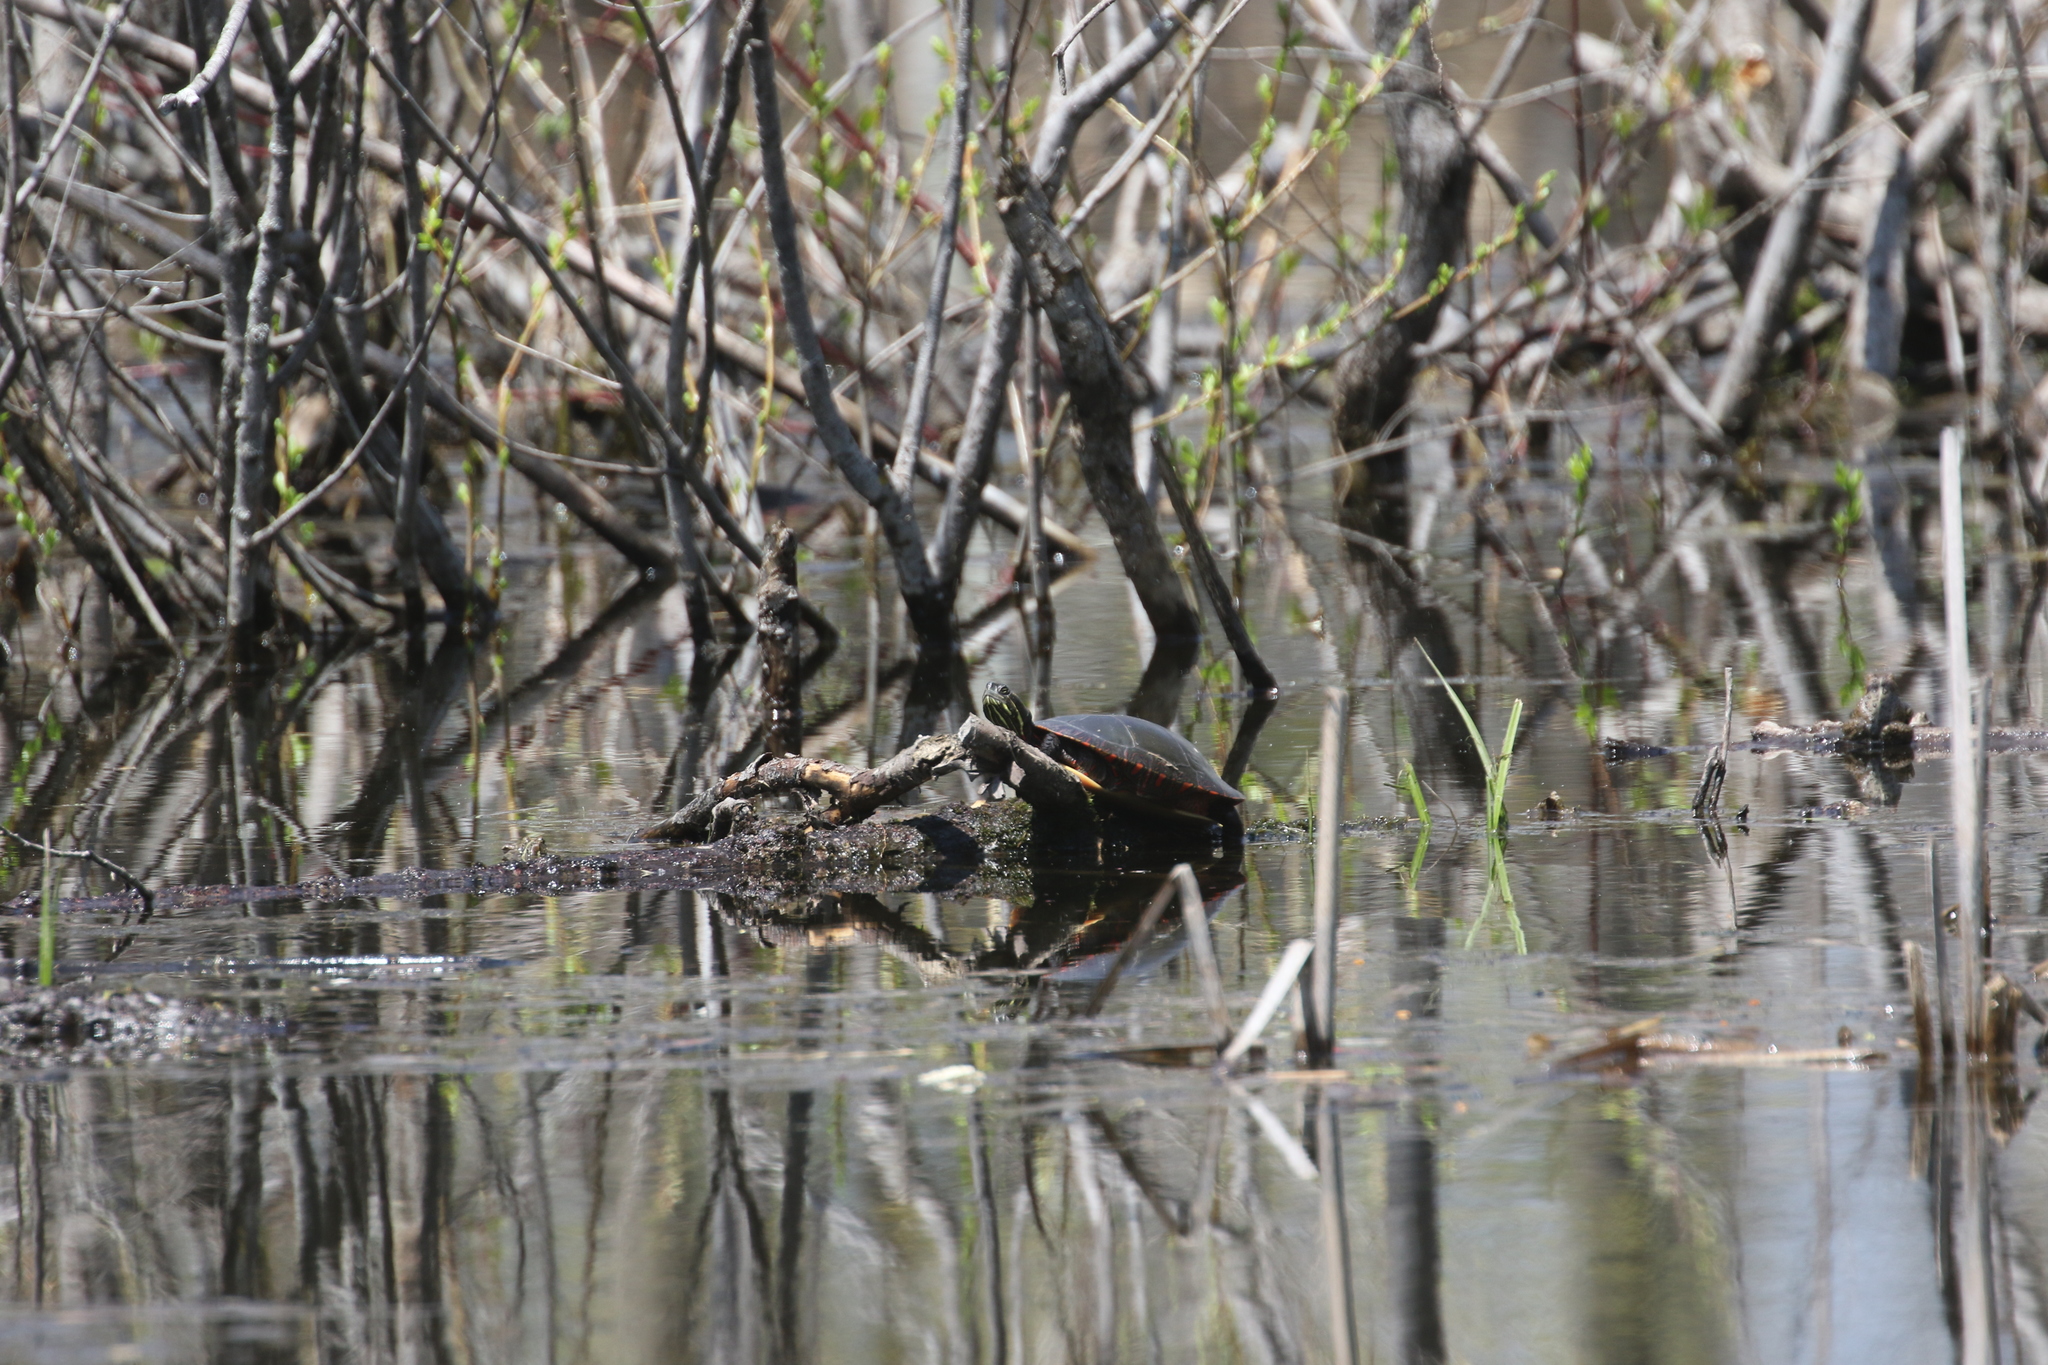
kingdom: Animalia
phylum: Chordata
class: Testudines
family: Emydidae
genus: Chrysemys
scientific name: Chrysemys picta
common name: Painted turtle
